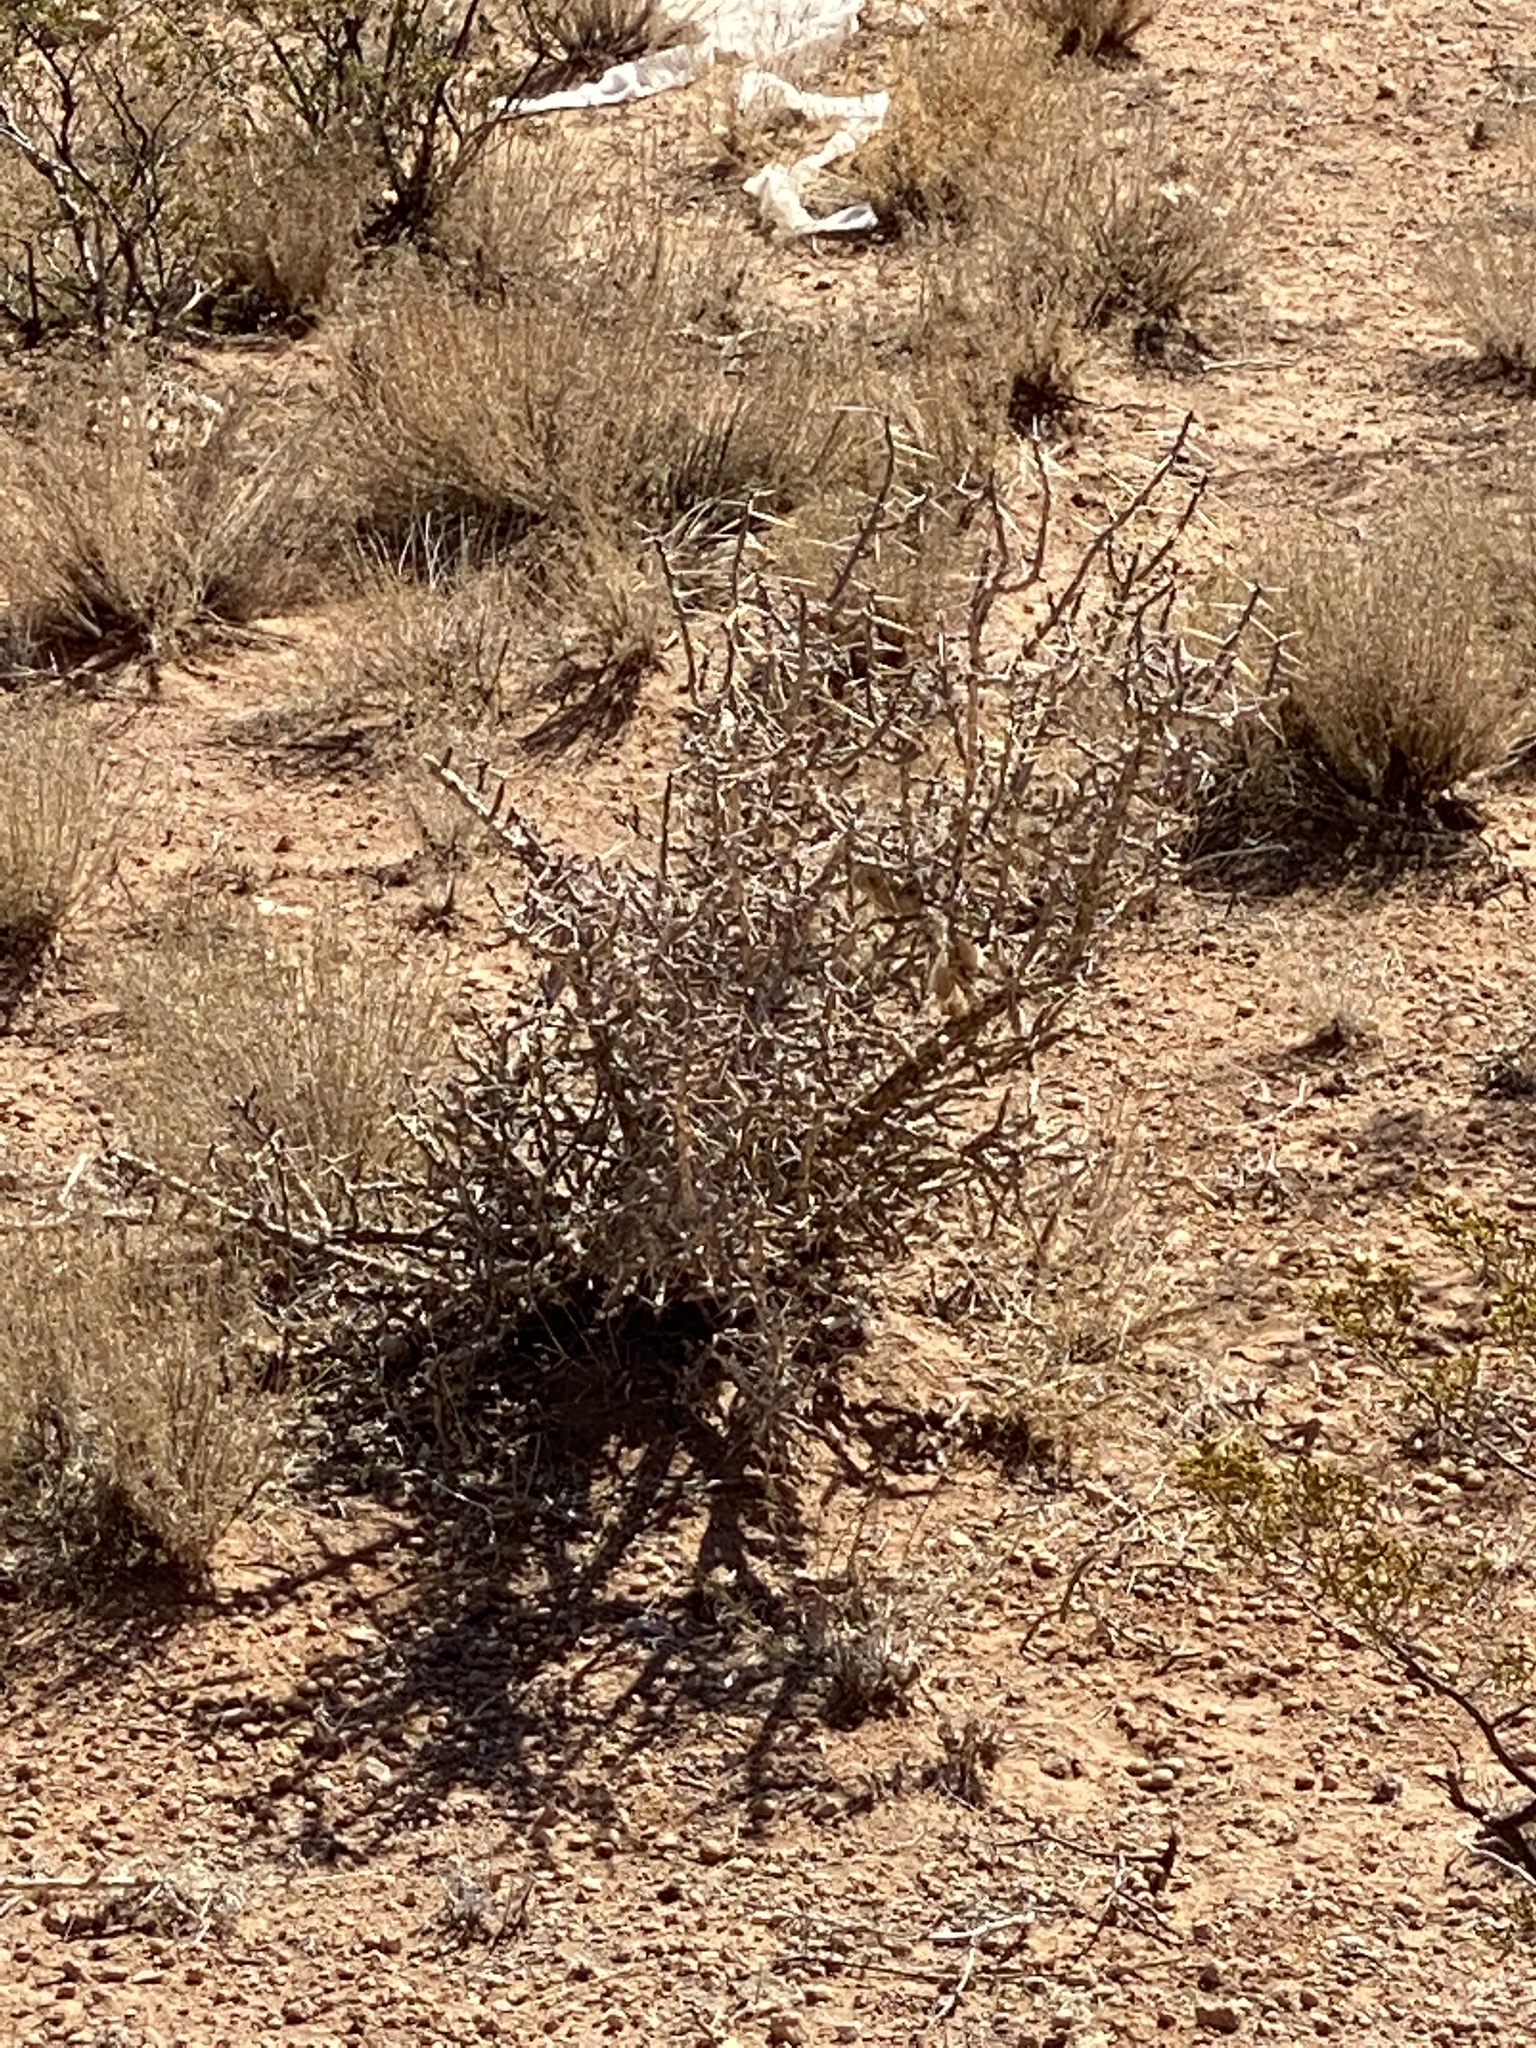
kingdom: Plantae
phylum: Tracheophyta
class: Magnoliopsida
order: Caryophyllales
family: Cactaceae
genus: Cylindropuntia
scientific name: Cylindropuntia leptocaulis
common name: Christmas cactus
